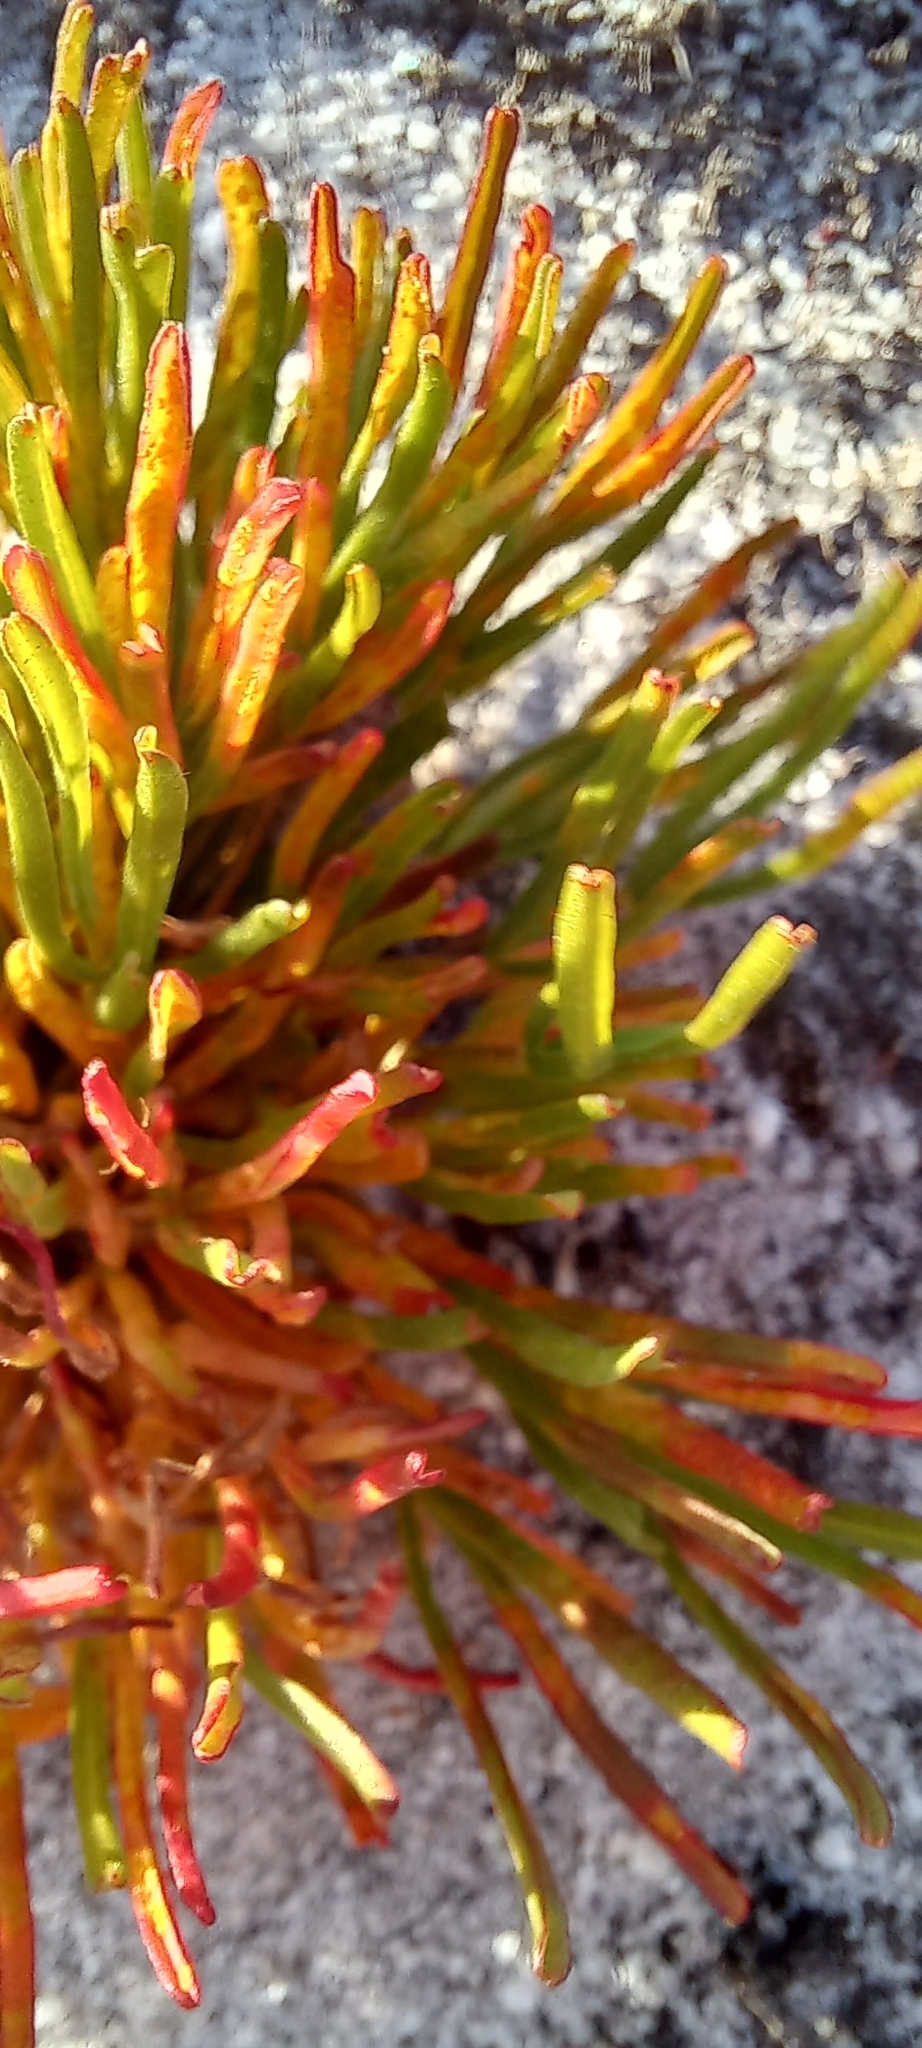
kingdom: Plantae
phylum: Tracheophyta
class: Magnoliopsida
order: Oxalidales
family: Oxalidaceae
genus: Oxalis
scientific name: Oxalis polyphylla
